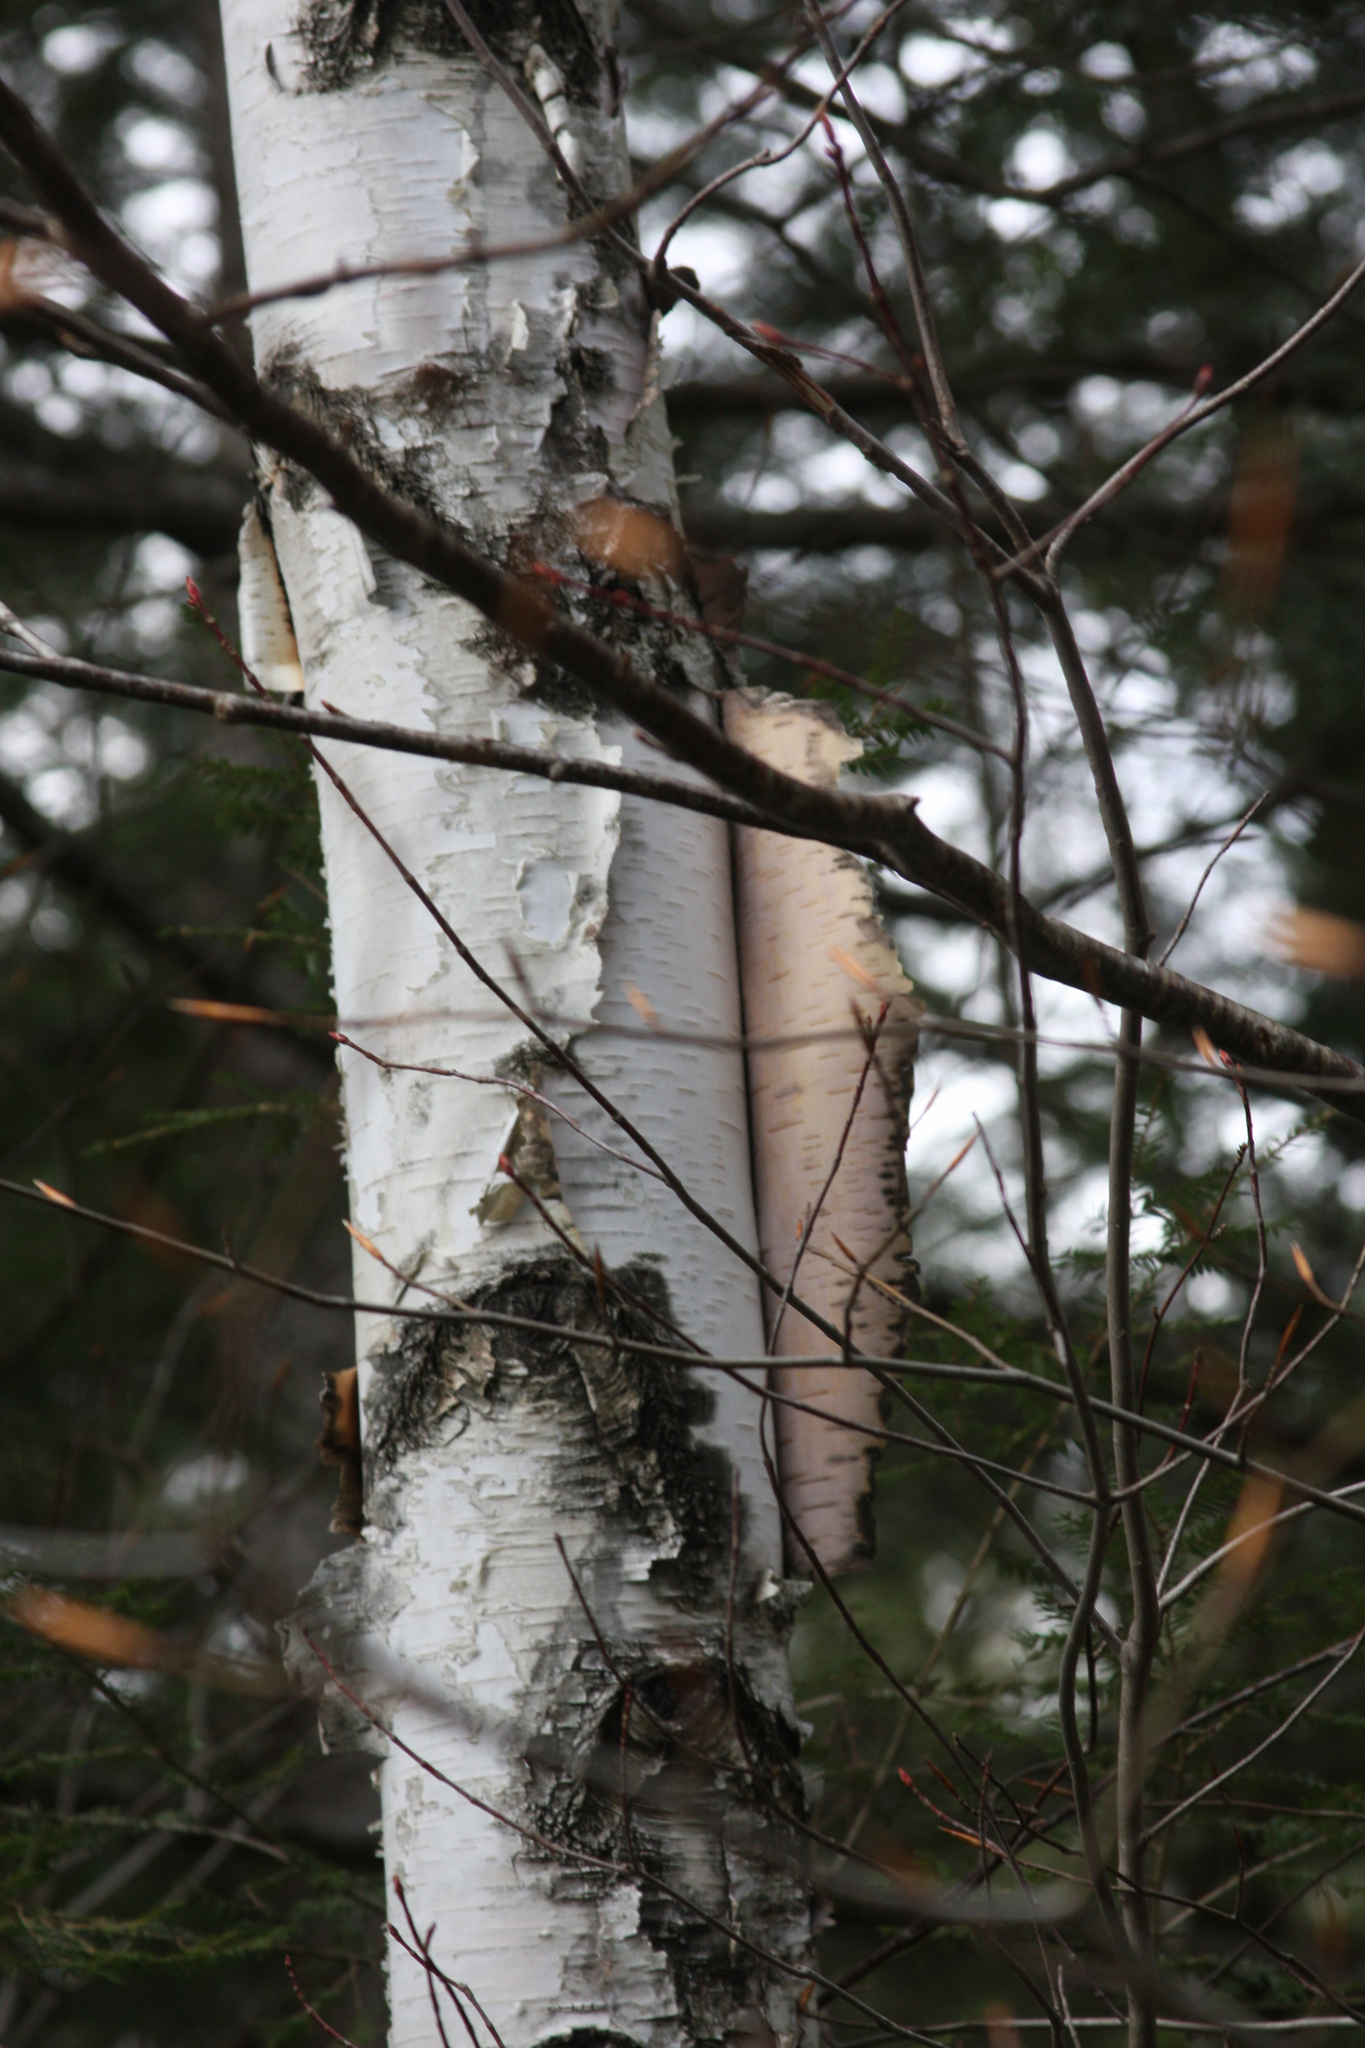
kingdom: Plantae
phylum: Tracheophyta
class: Magnoliopsida
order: Fagales
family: Betulaceae
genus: Betula
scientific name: Betula papyrifera
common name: Paper birch
